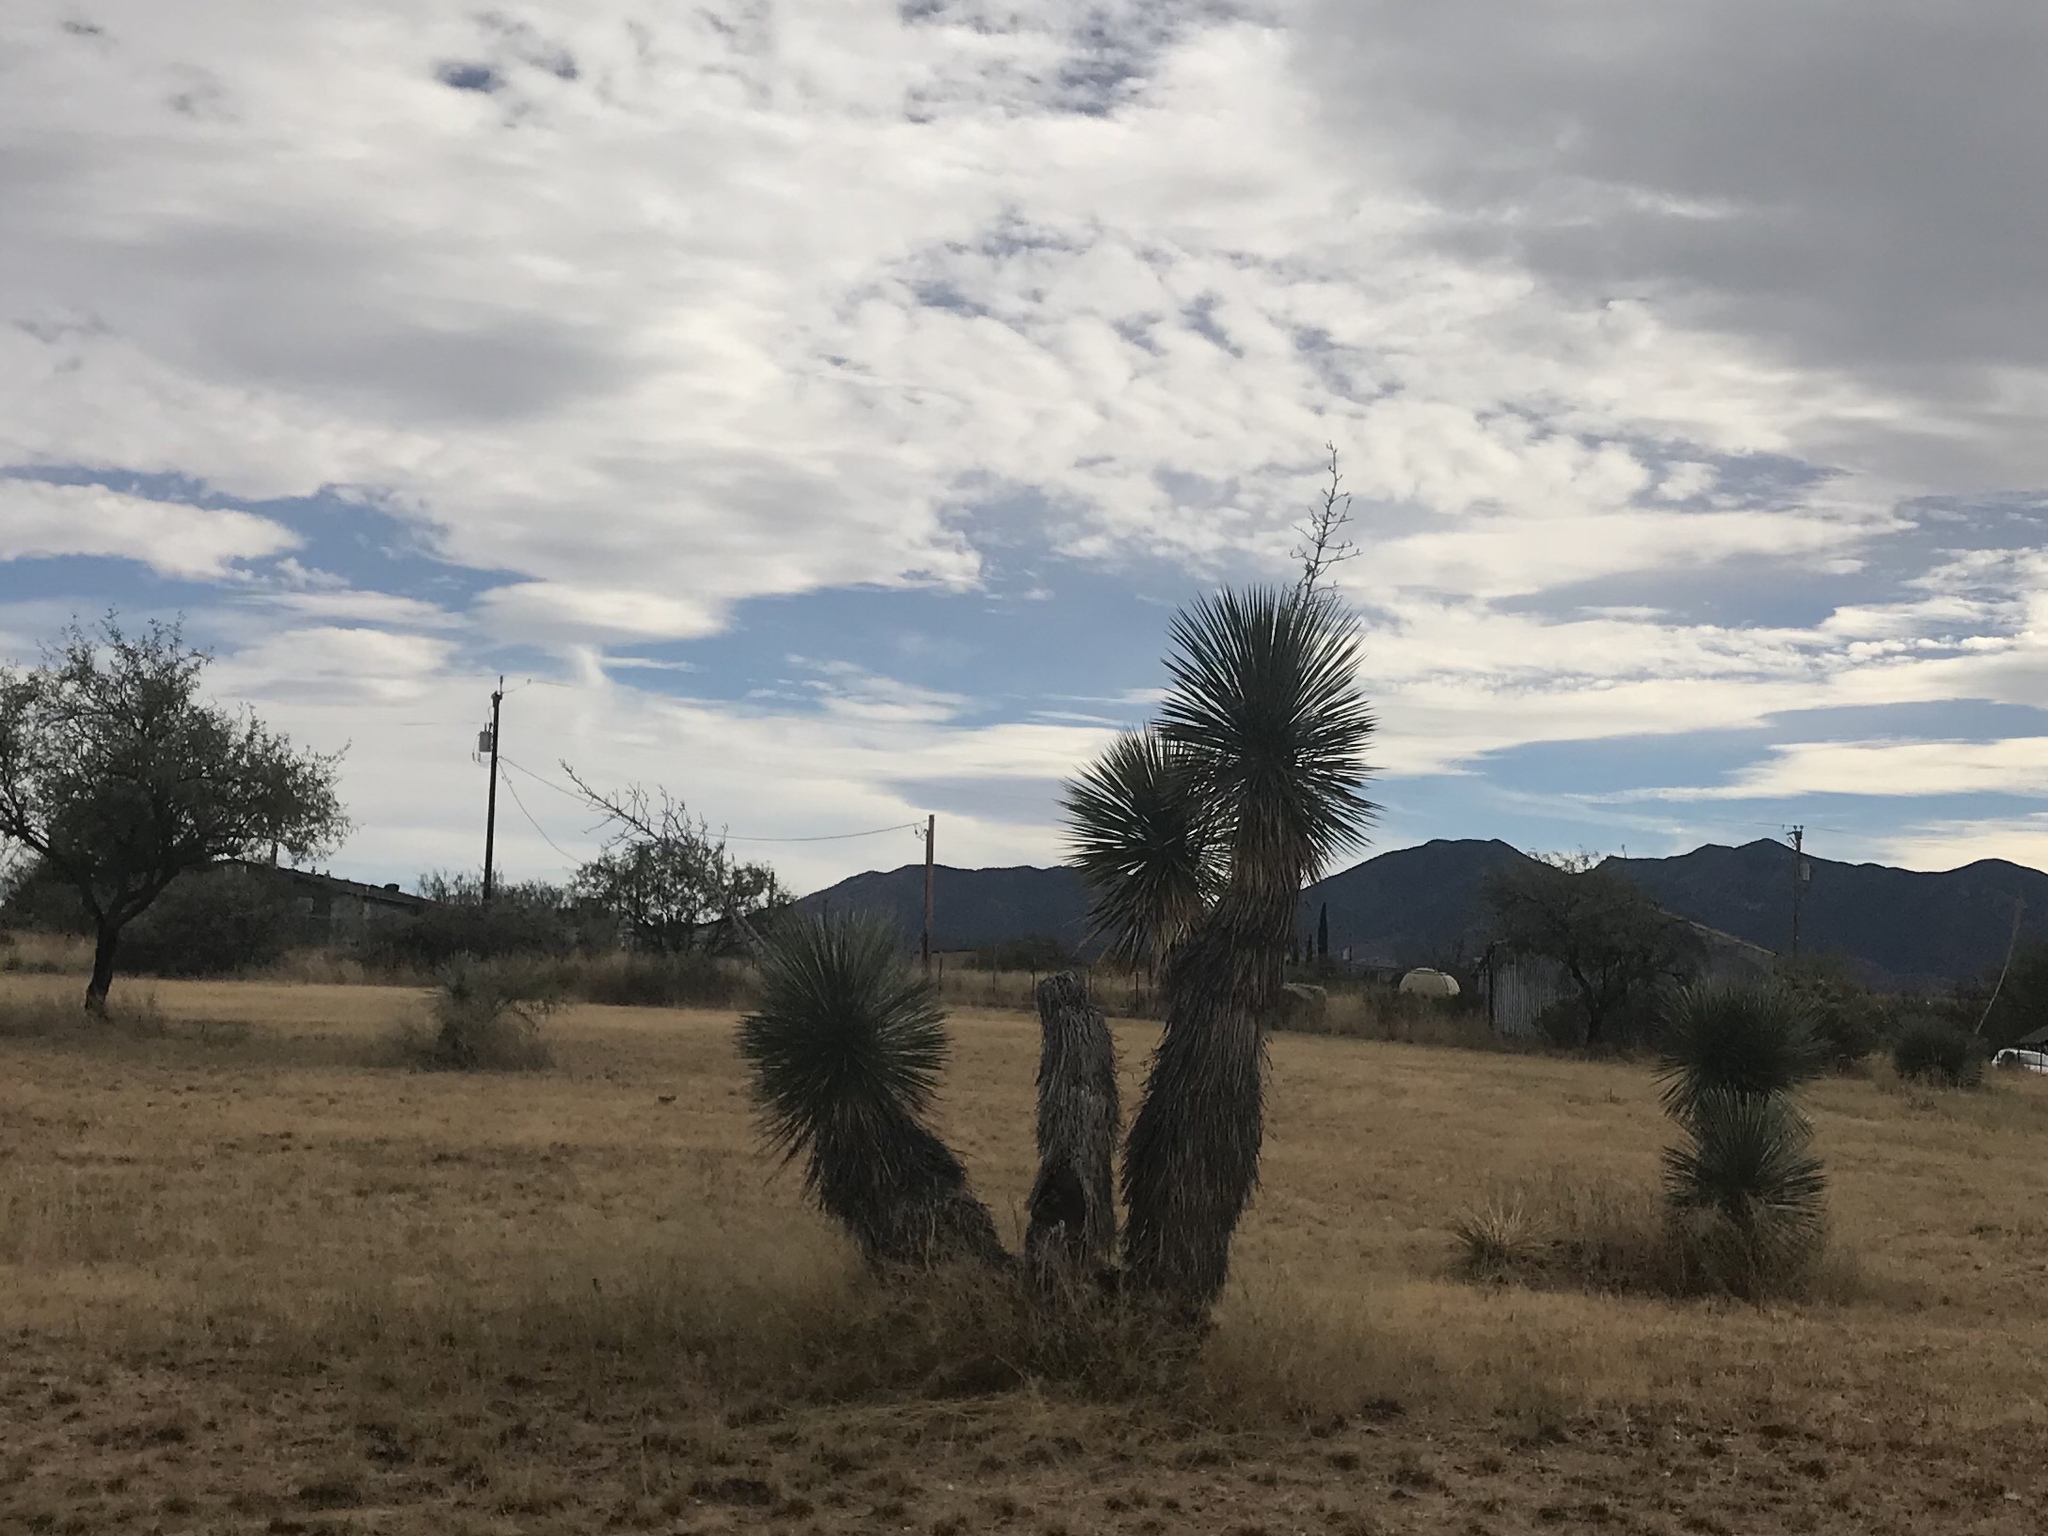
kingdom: Plantae
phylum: Tracheophyta
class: Liliopsida
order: Asparagales
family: Asparagaceae
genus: Yucca
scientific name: Yucca elata
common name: Palmella
